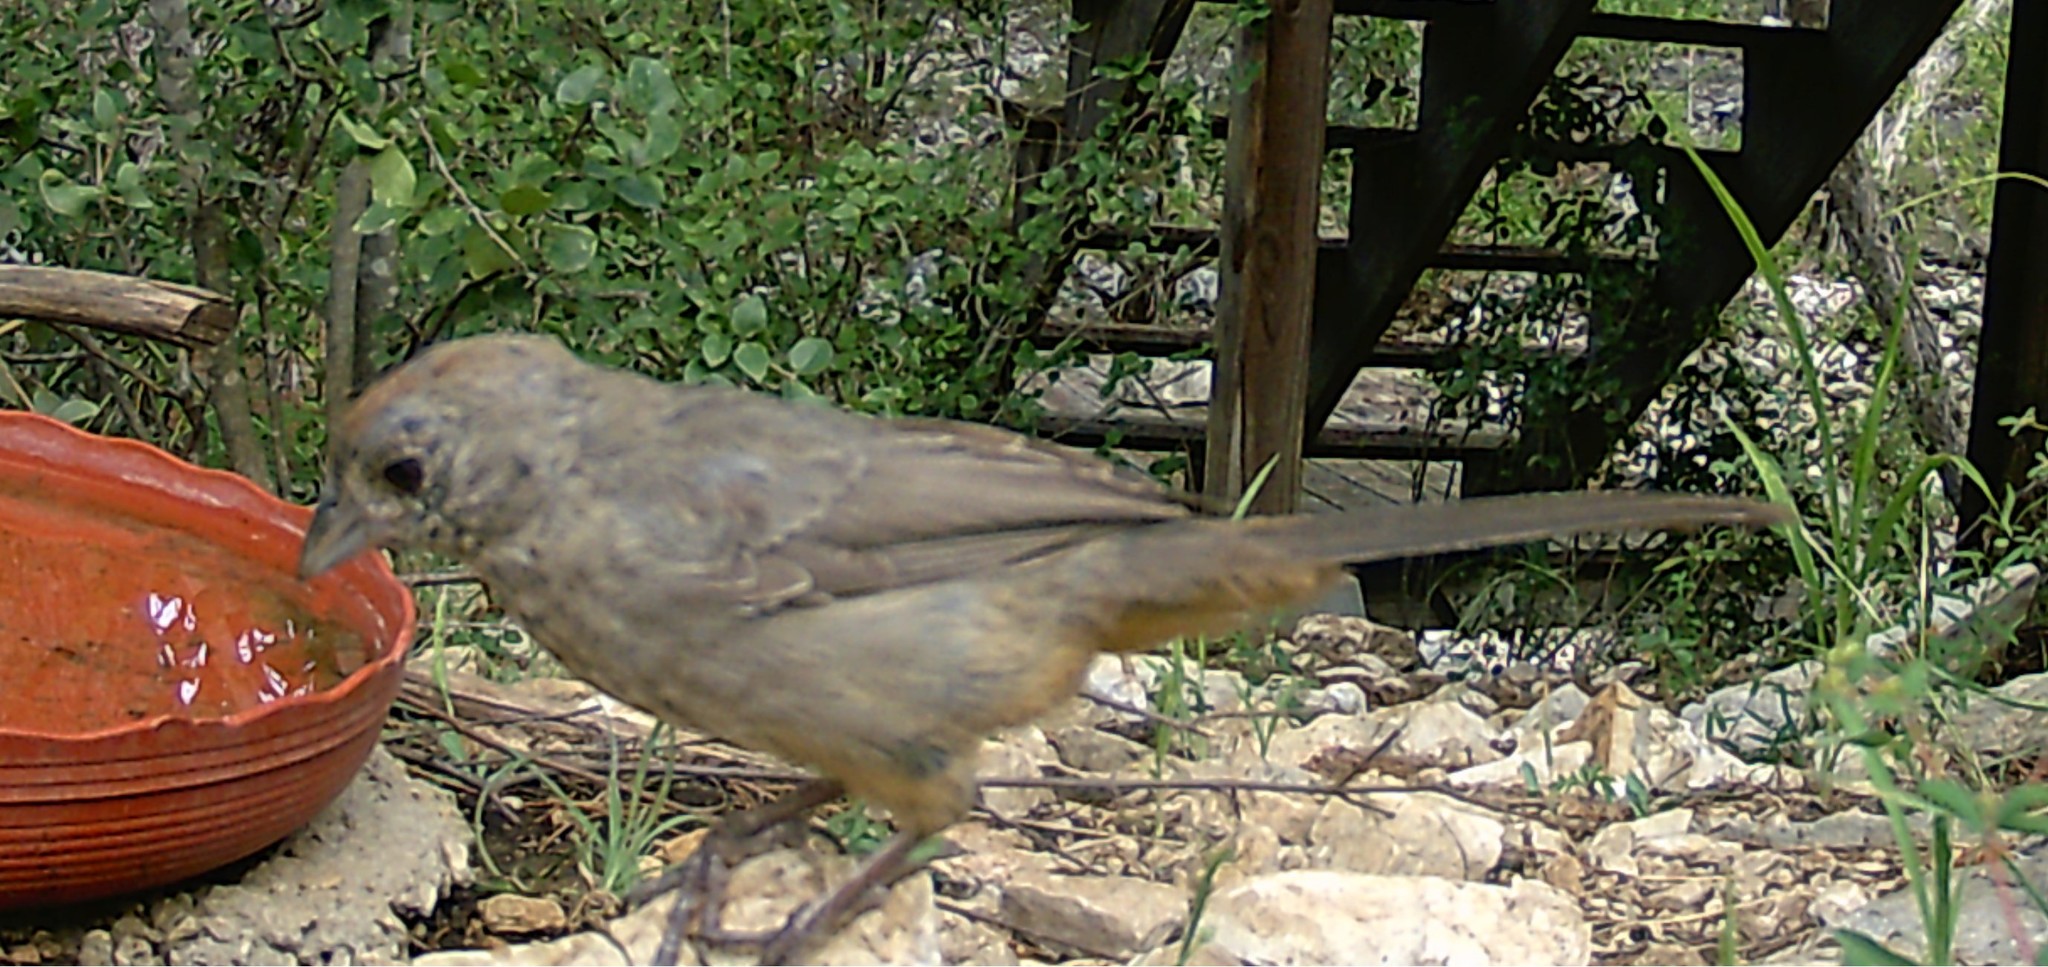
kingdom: Animalia
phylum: Chordata
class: Aves
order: Passeriformes
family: Passerellidae
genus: Melozone
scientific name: Melozone fusca
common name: Canyon towhee
